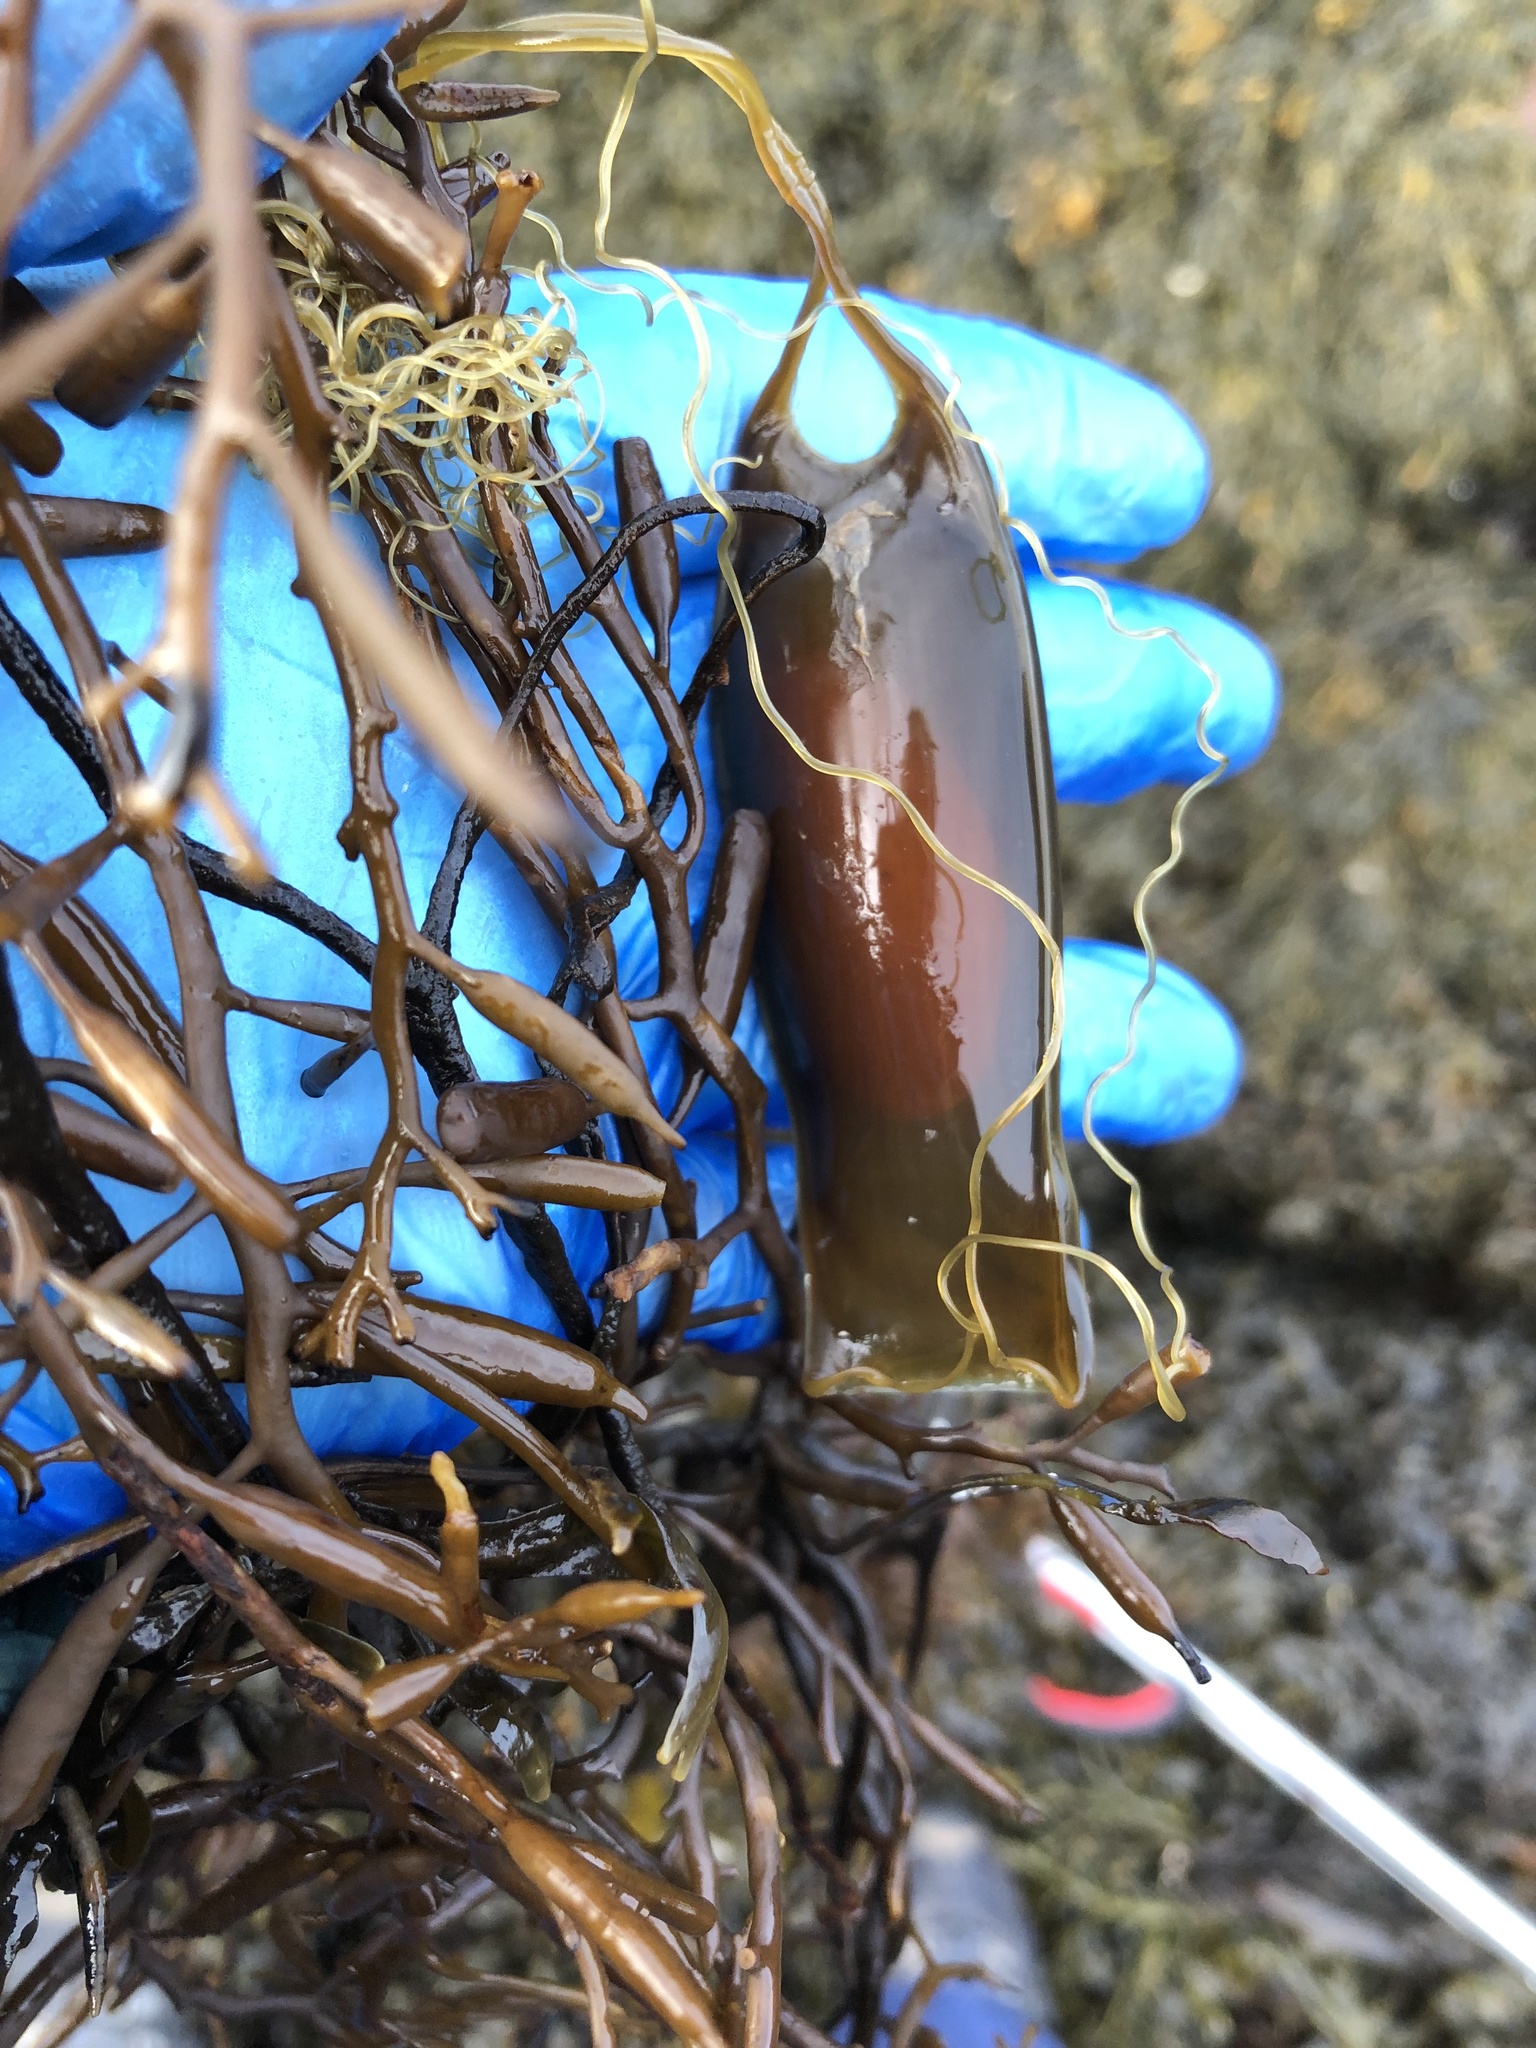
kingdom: Animalia
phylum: Chordata
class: Elasmobranchii
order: Carcharhiniformes
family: Scyliorhinidae
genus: Scyliorhinus
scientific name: Scyliorhinus canicula
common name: Lesser spotted dogfish
